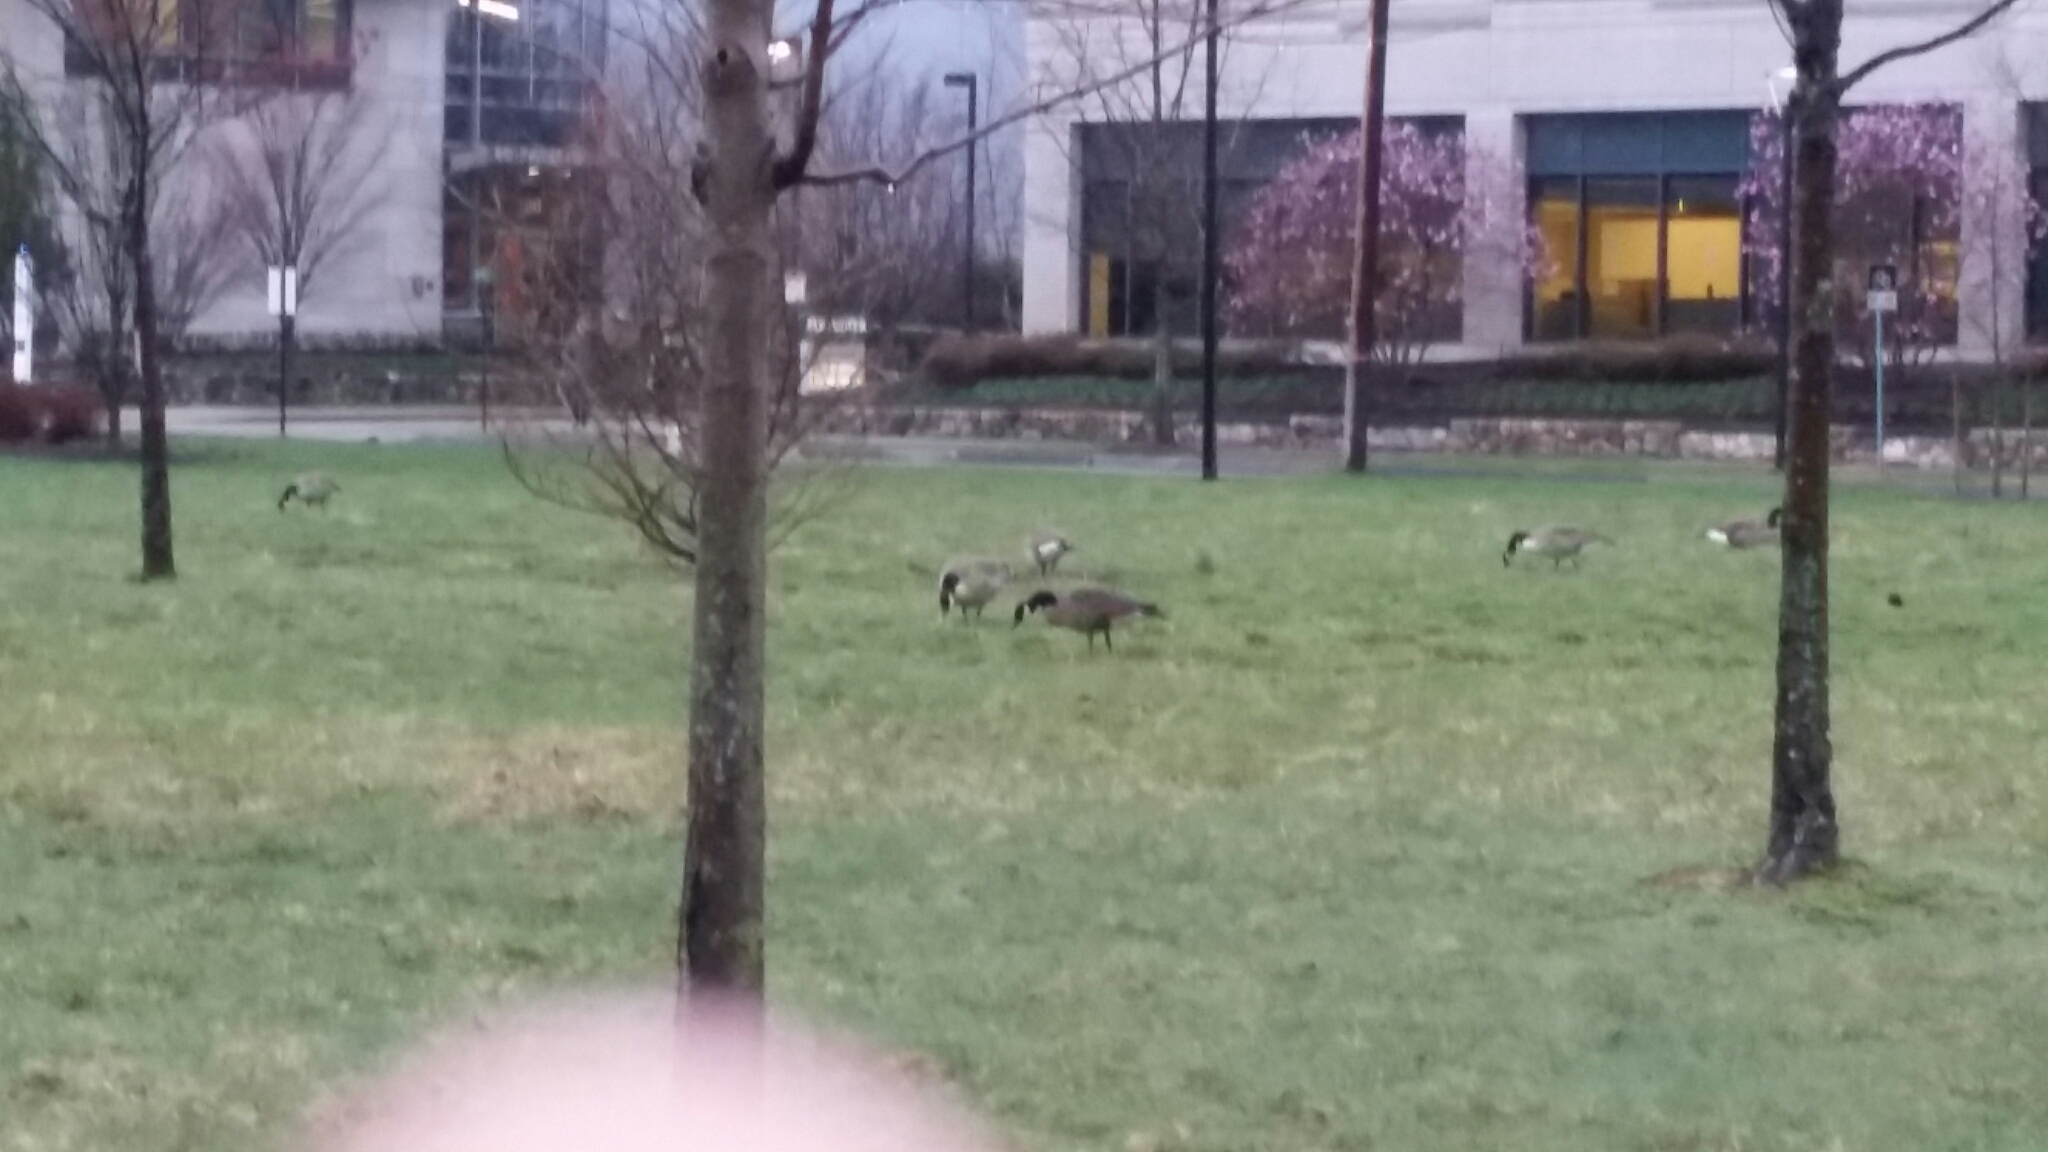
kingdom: Animalia
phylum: Chordata
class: Aves
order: Anseriformes
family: Anatidae
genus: Branta
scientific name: Branta canadensis
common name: Canada goose
